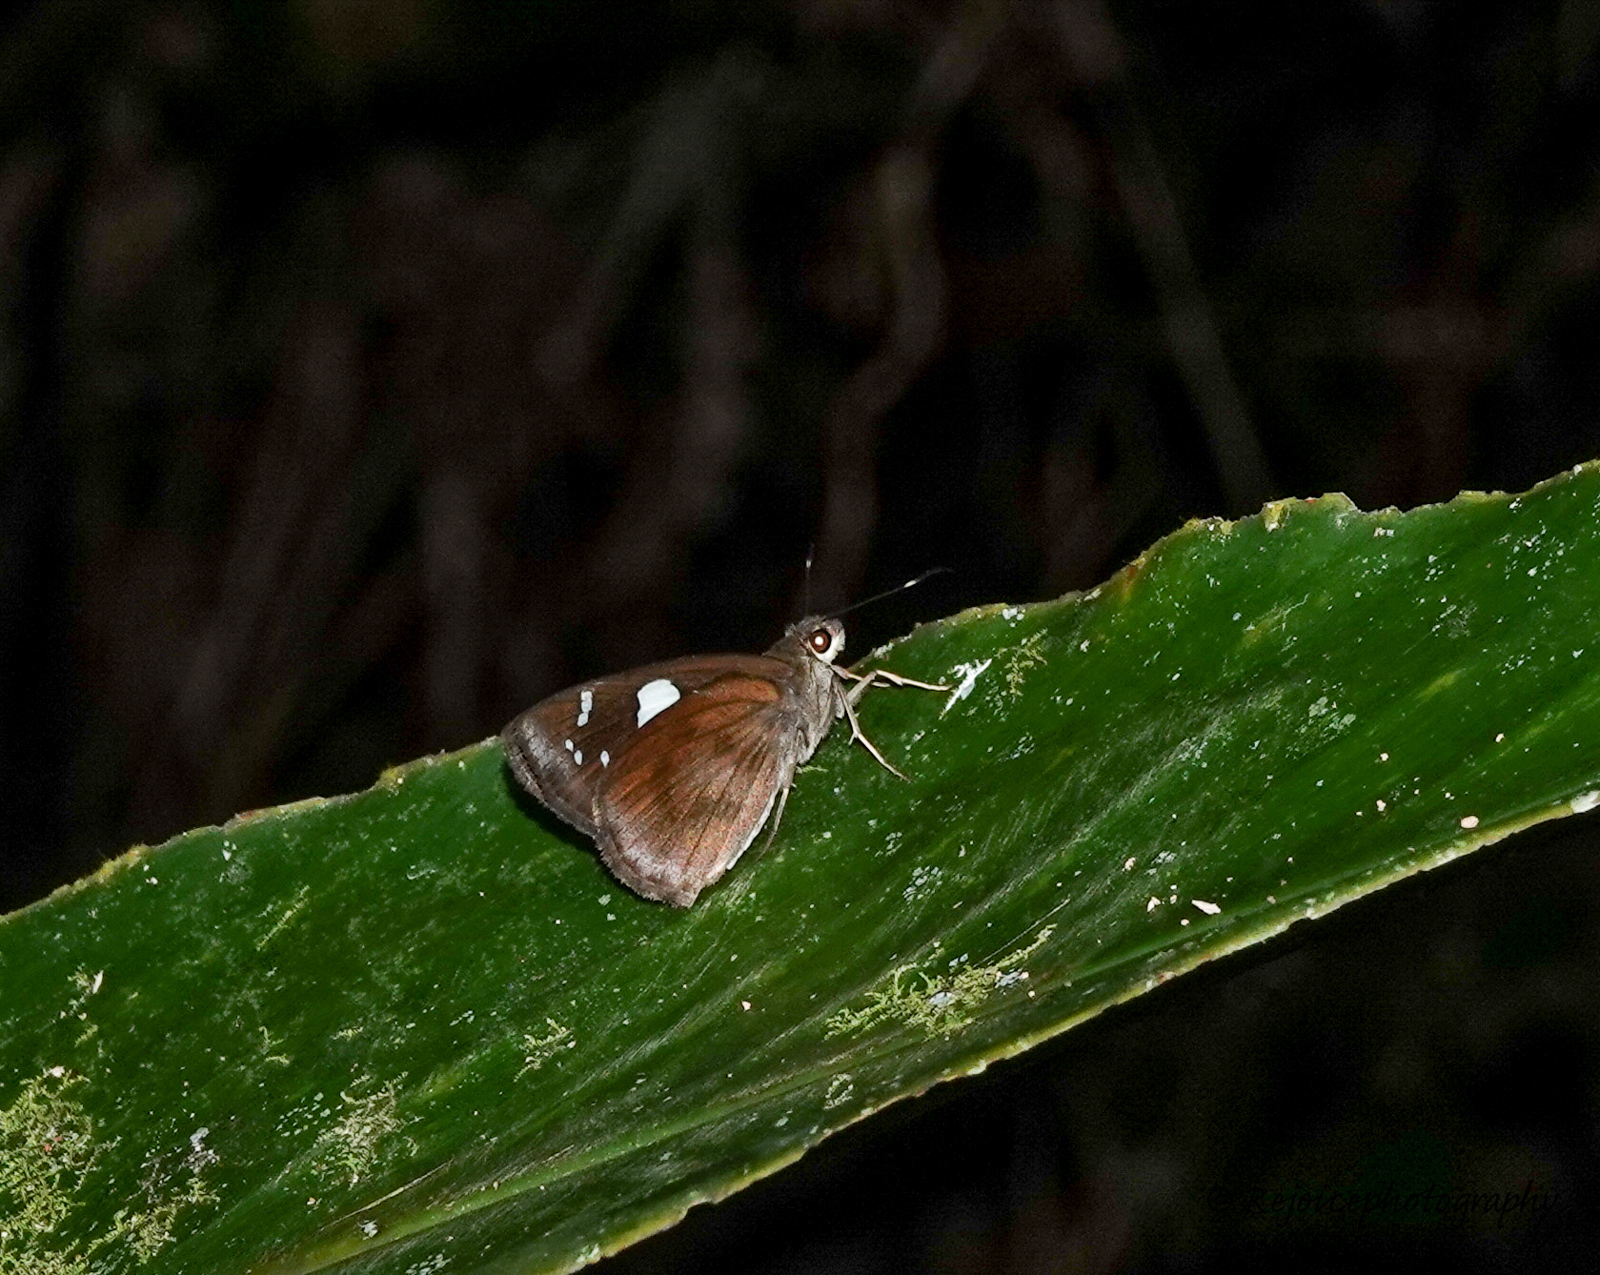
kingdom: Animalia
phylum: Arthropoda
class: Insecta
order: Lepidoptera
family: Hesperiidae
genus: Notocrypta
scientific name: Notocrypta curvifascia
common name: Restricted demon
